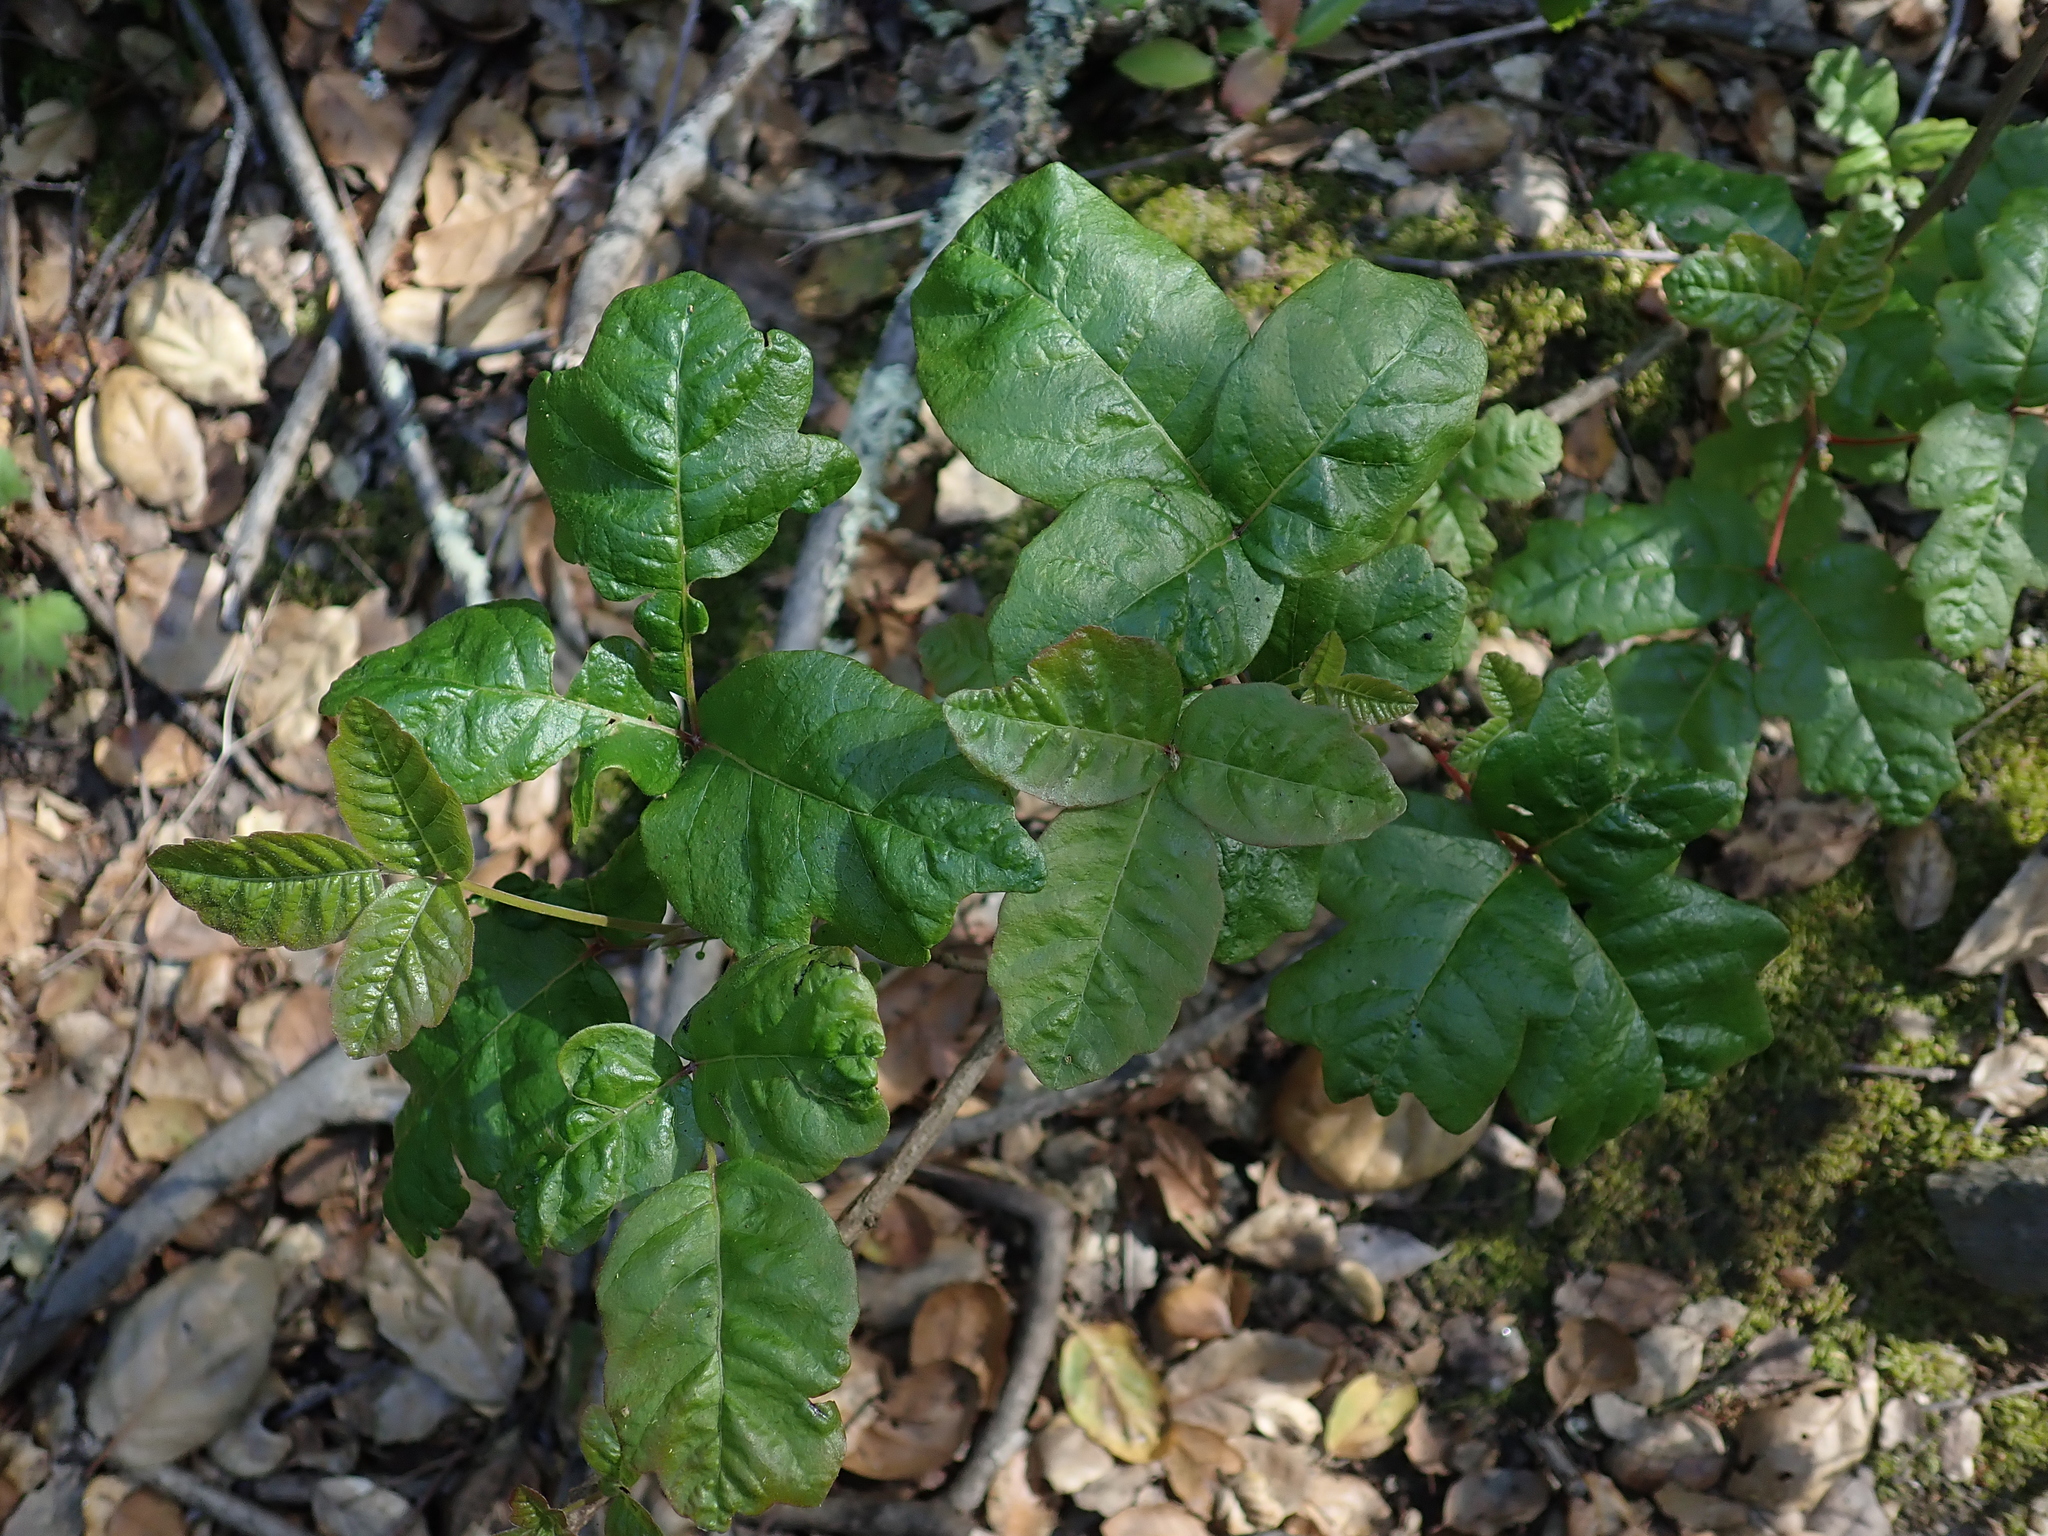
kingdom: Plantae
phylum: Tracheophyta
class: Magnoliopsida
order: Sapindales
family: Anacardiaceae
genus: Toxicodendron
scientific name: Toxicodendron diversilobum
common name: Pacific poison-oak
